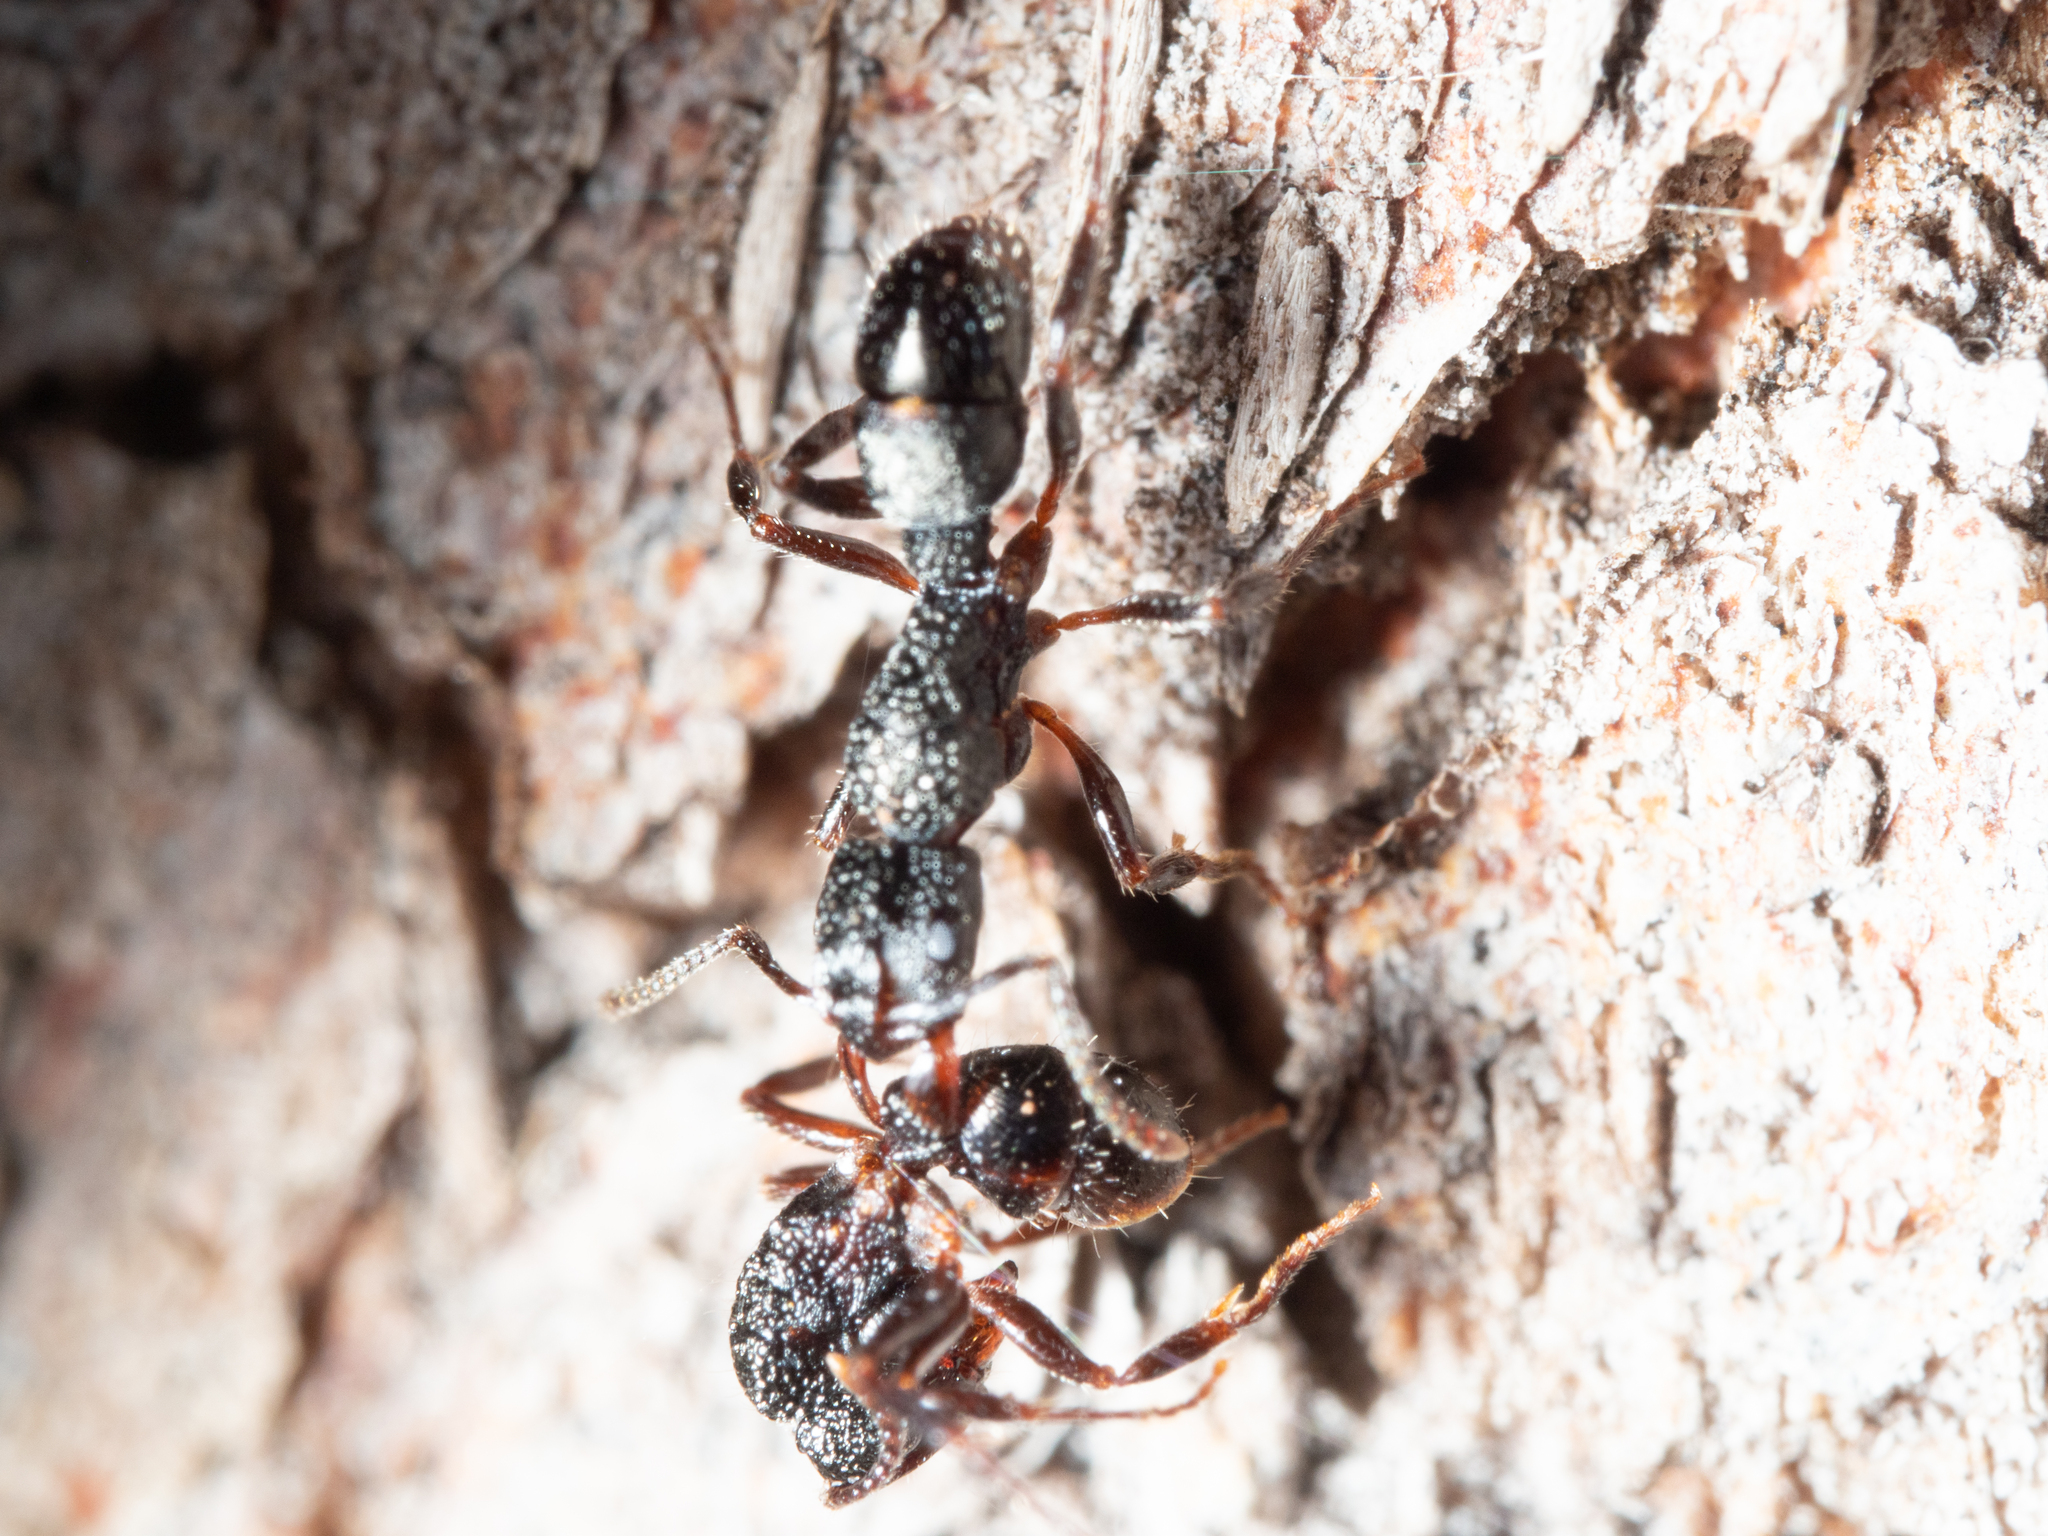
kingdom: Animalia
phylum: Arthropoda
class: Insecta
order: Hymenoptera
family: Formicidae
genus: Rhytidoponera
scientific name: Rhytidoponera victoriae
